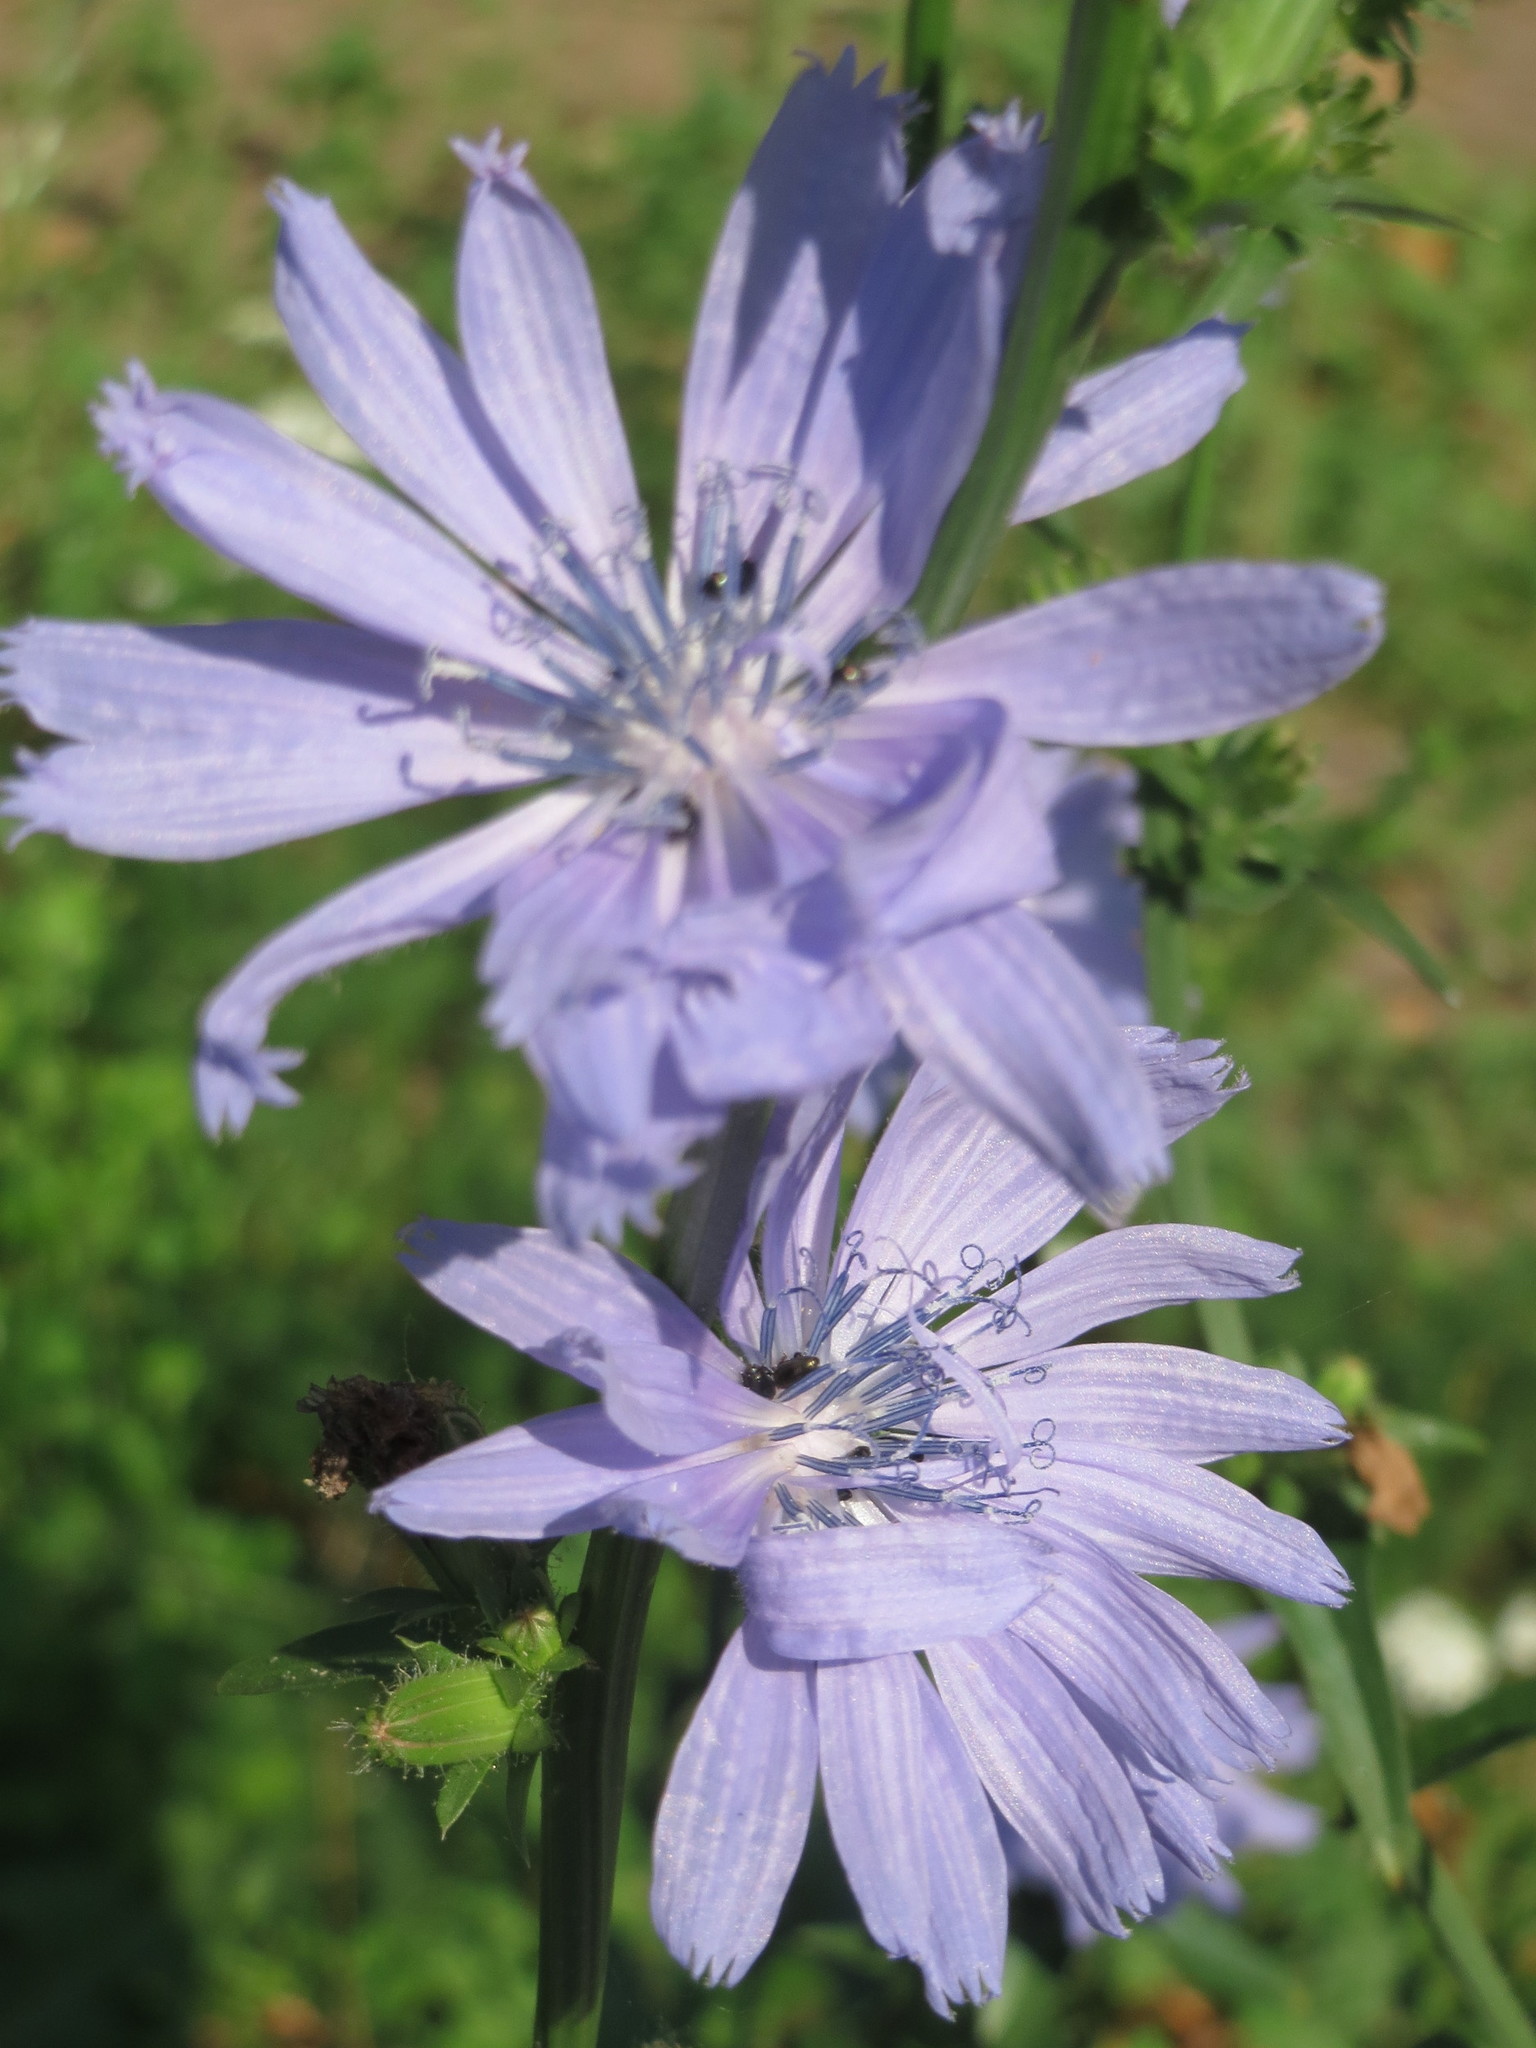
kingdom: Plantae
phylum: Tracheophyta
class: Magnoliopsida
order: Asterales
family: Asteraceae
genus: Cichorium
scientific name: Cichorium intybus
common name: Chicory
